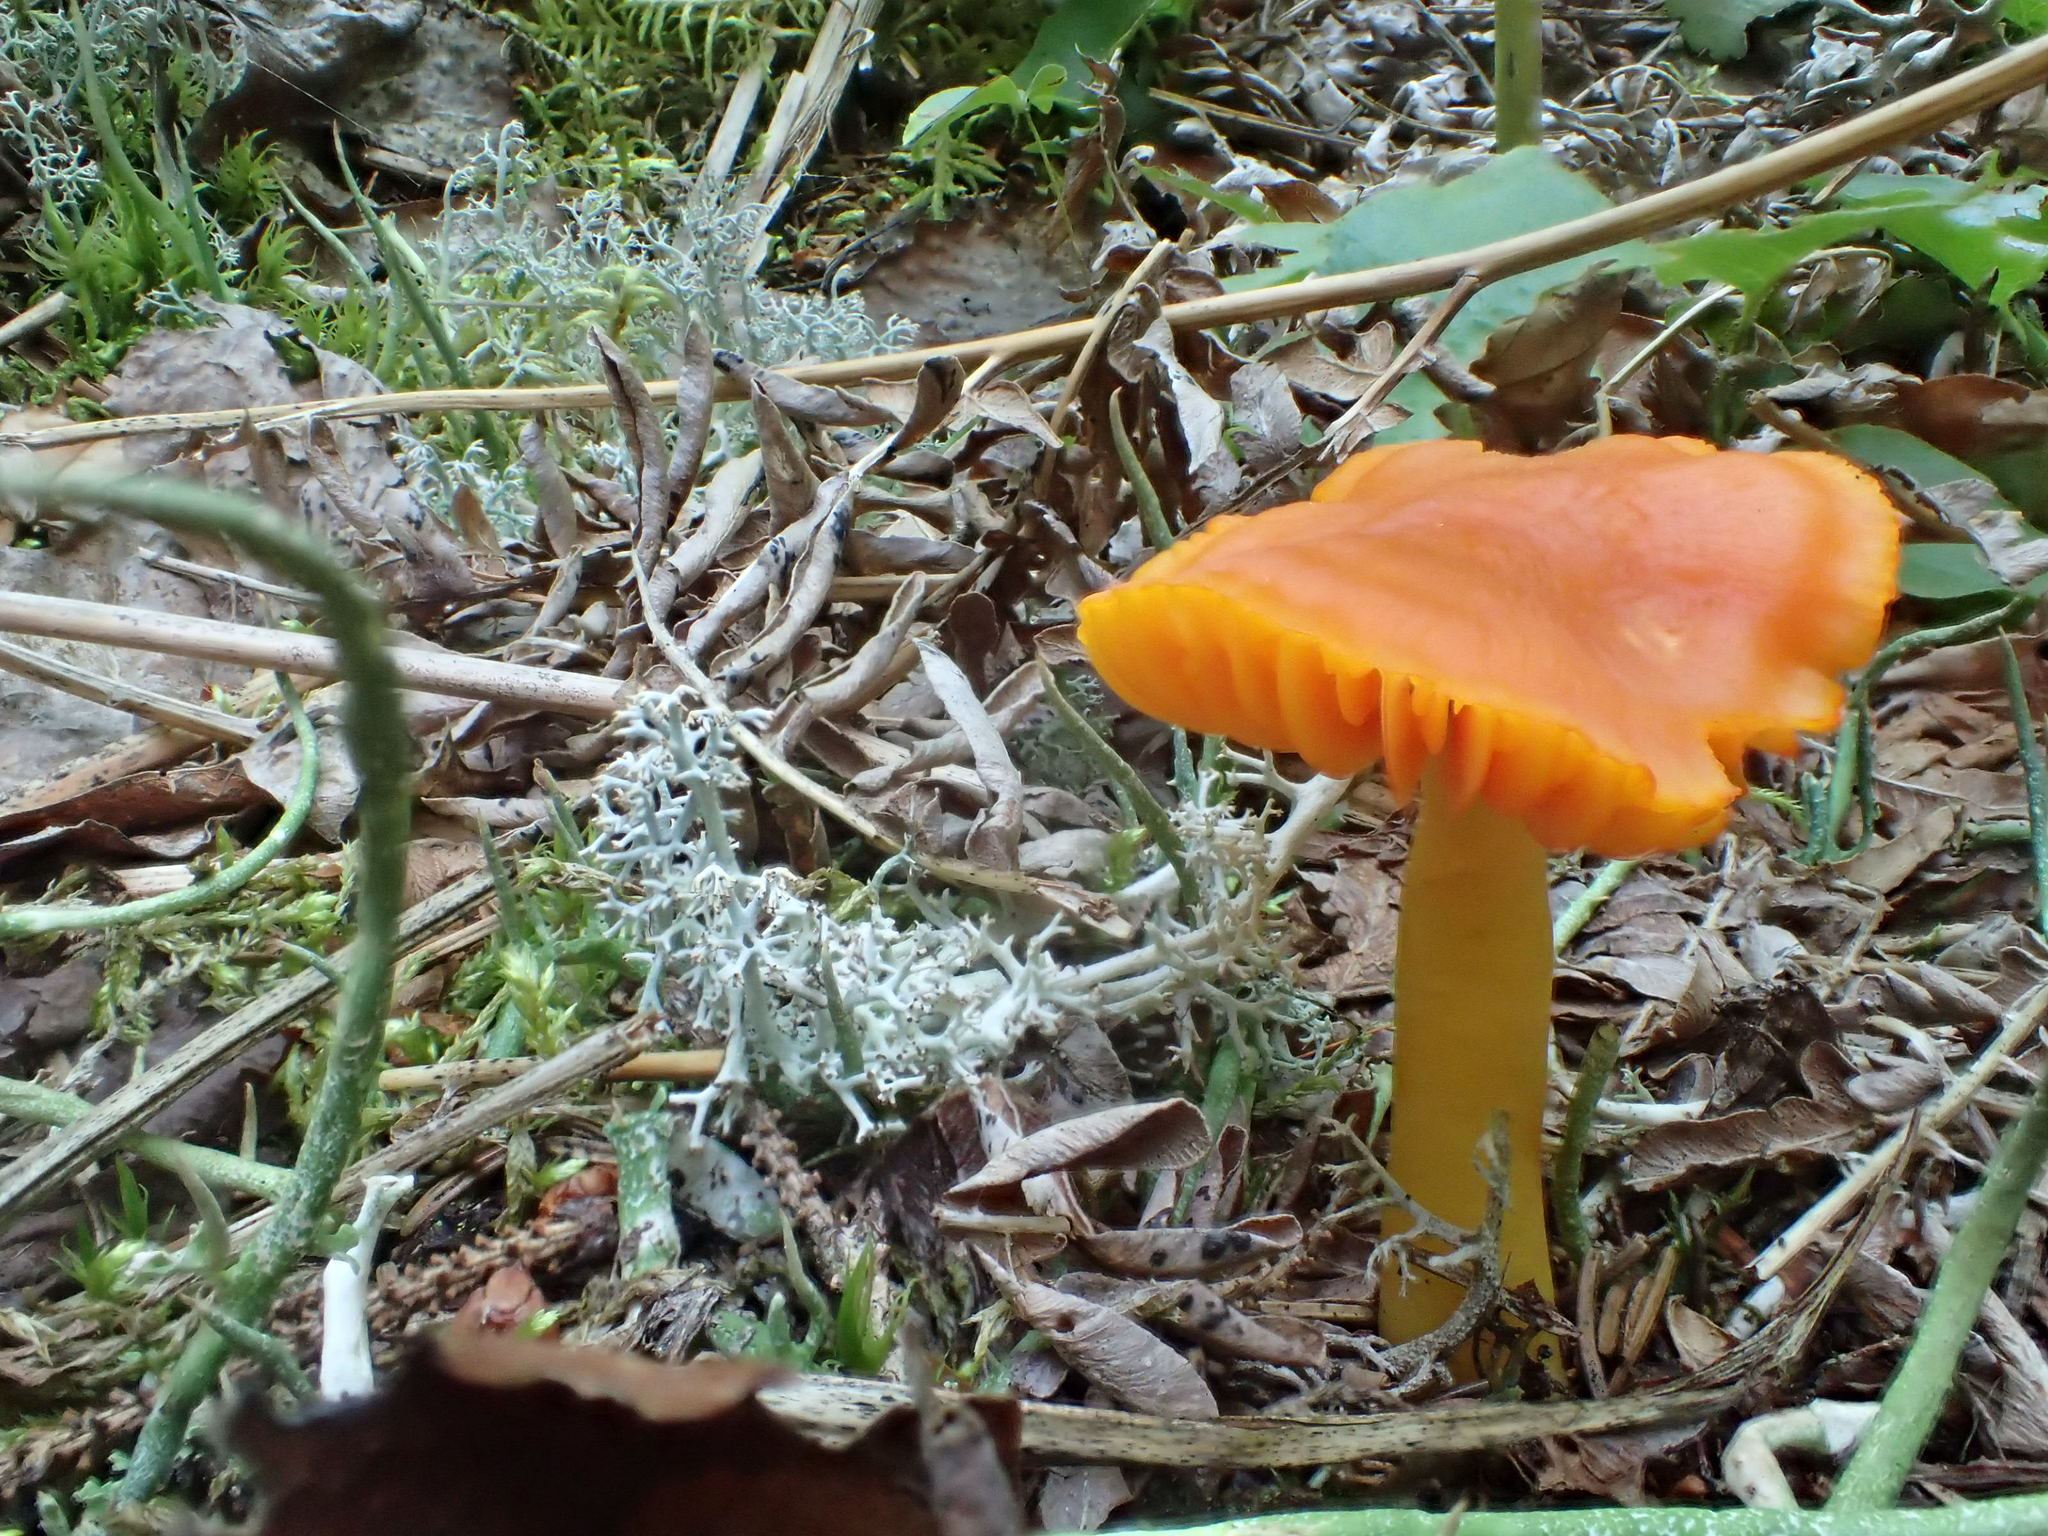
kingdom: Fungi
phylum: Basidiomycota
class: Agaricomycetes
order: Agaricales
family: Hygrophoraceae
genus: Humidicutis
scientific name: Humidicutis marginata
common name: Orange gilled waxcap
